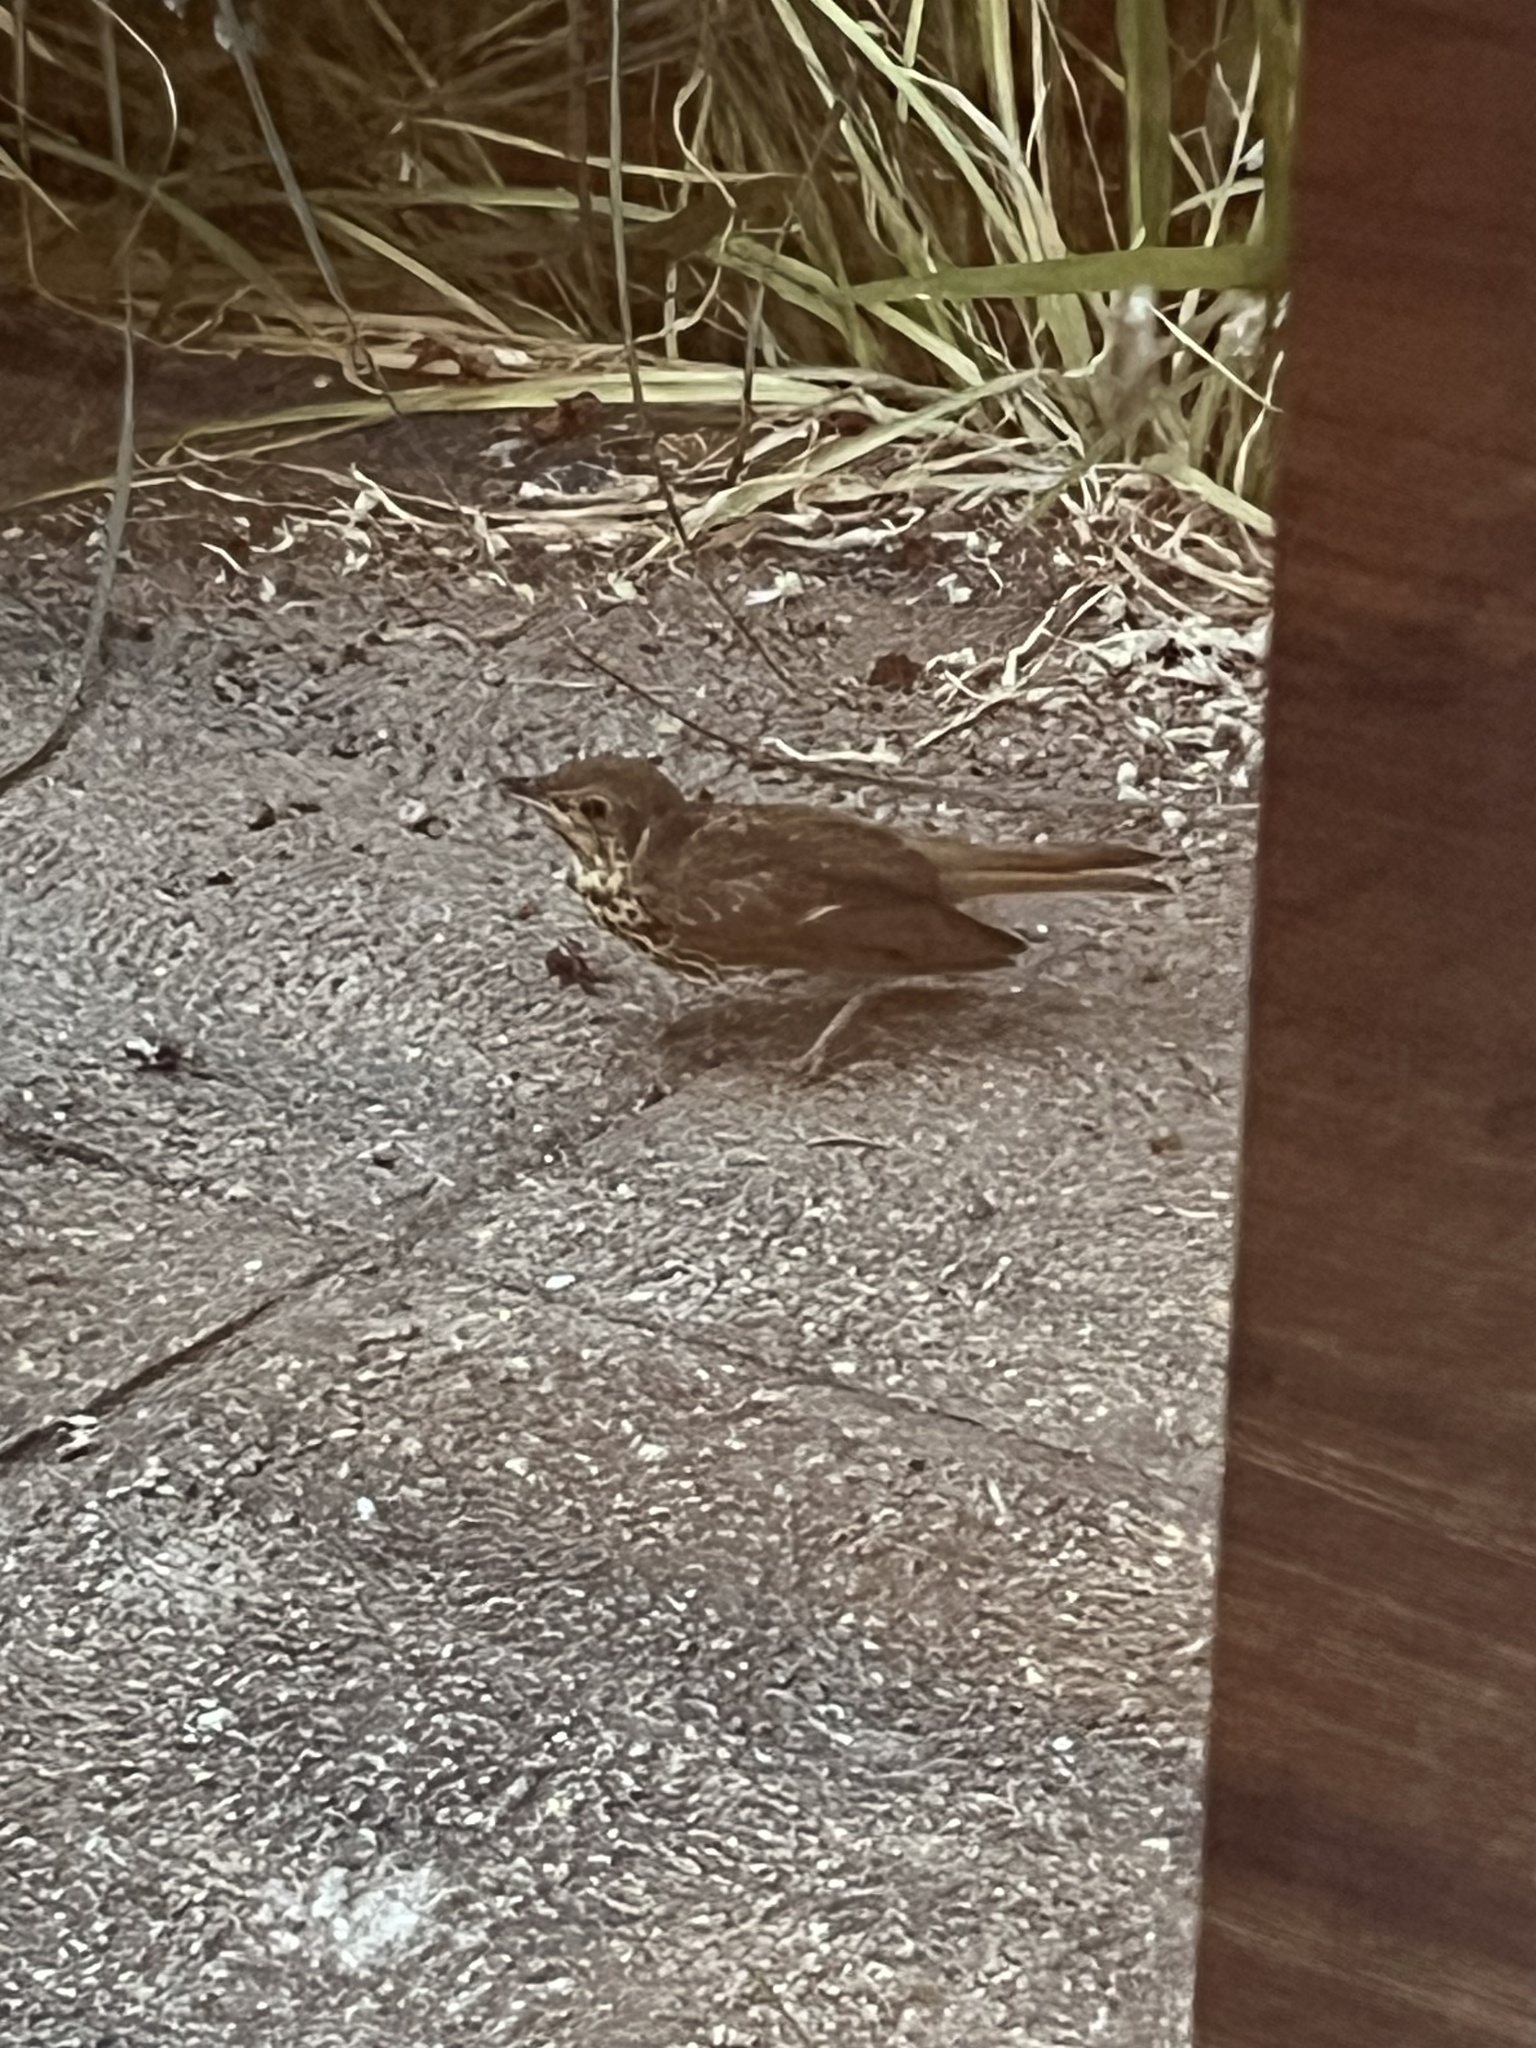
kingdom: Animalia
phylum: Chordata
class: Aves
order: Passeriformes
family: Turdidae
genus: Turdus
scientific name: Turdus philomelos
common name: Song thrush
